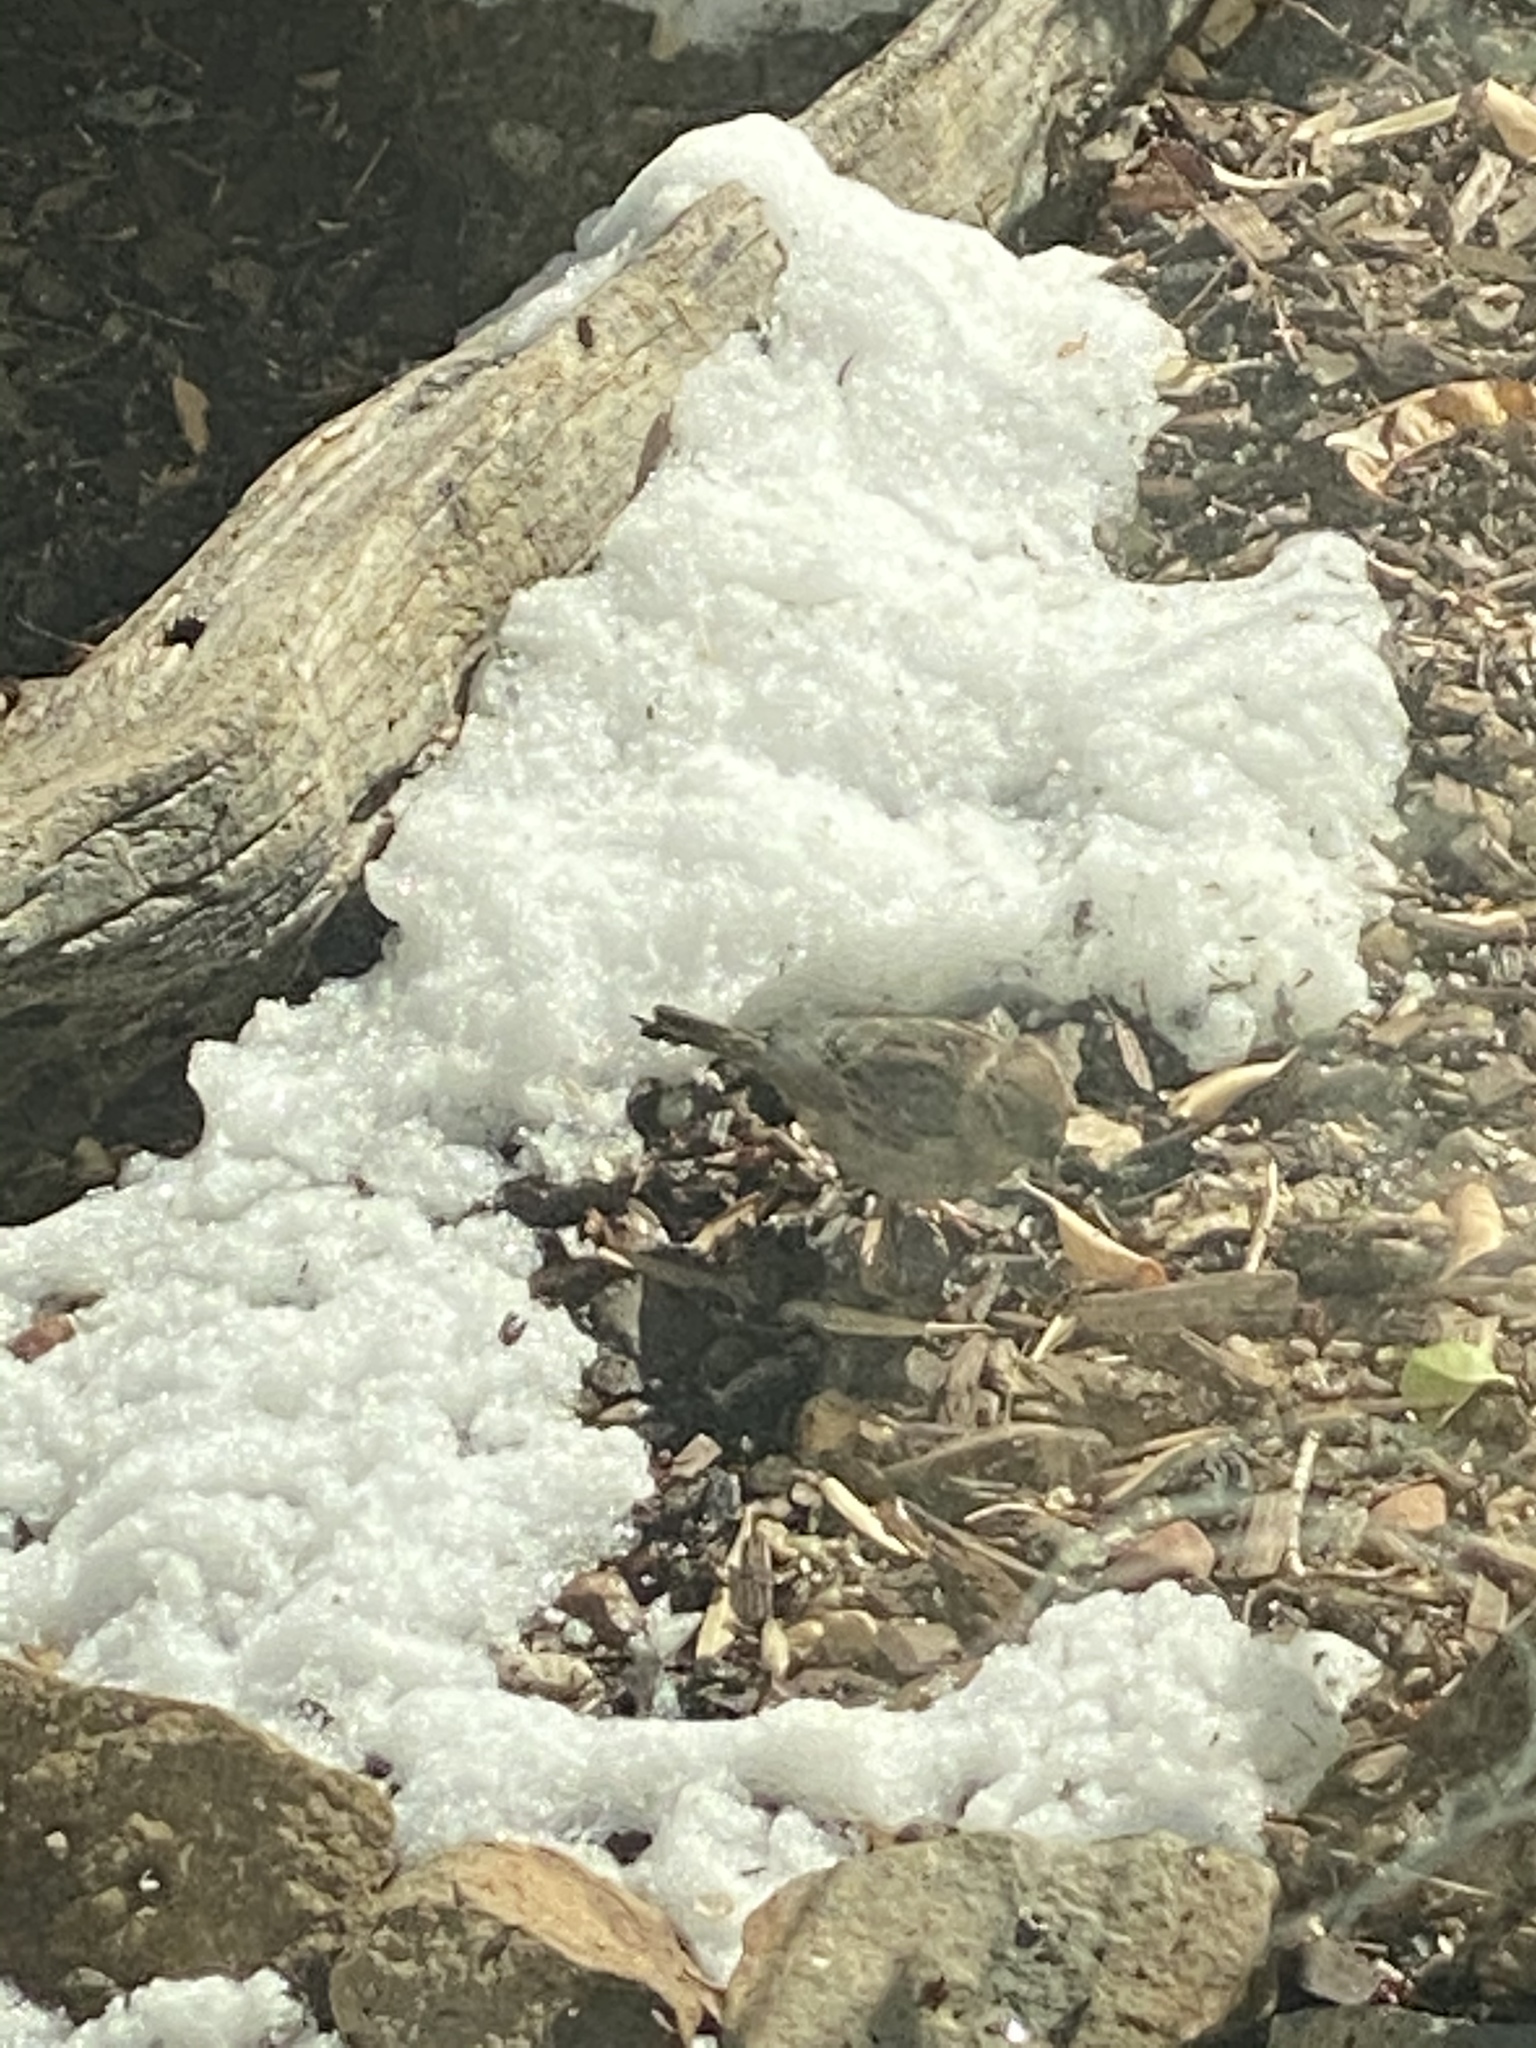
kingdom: Animalia
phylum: Chordata
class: Aves
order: Passeriformes
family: Passeridae
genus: Passer
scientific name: Passer domesticus
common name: House sparrow
